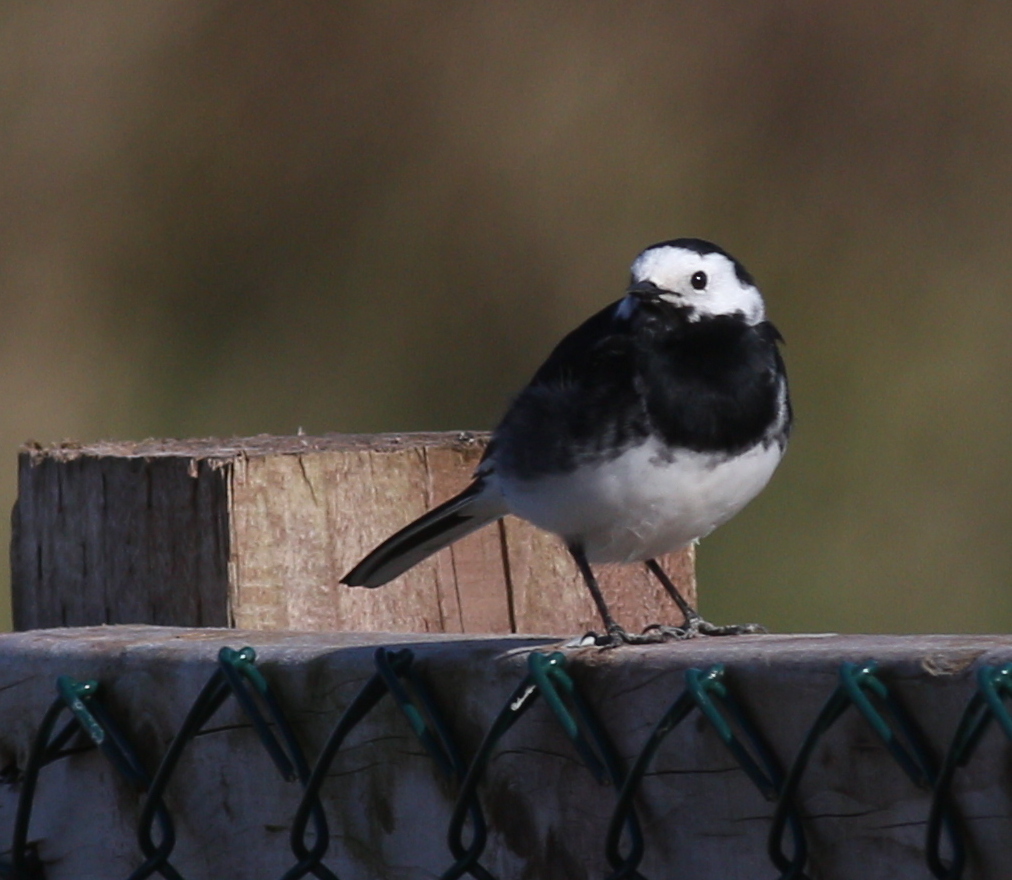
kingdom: Animalia
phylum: Chordata
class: Aves
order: Passeriformes
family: Motacillidae
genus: Motacilla
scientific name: Motacilla alba
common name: White wagtail
